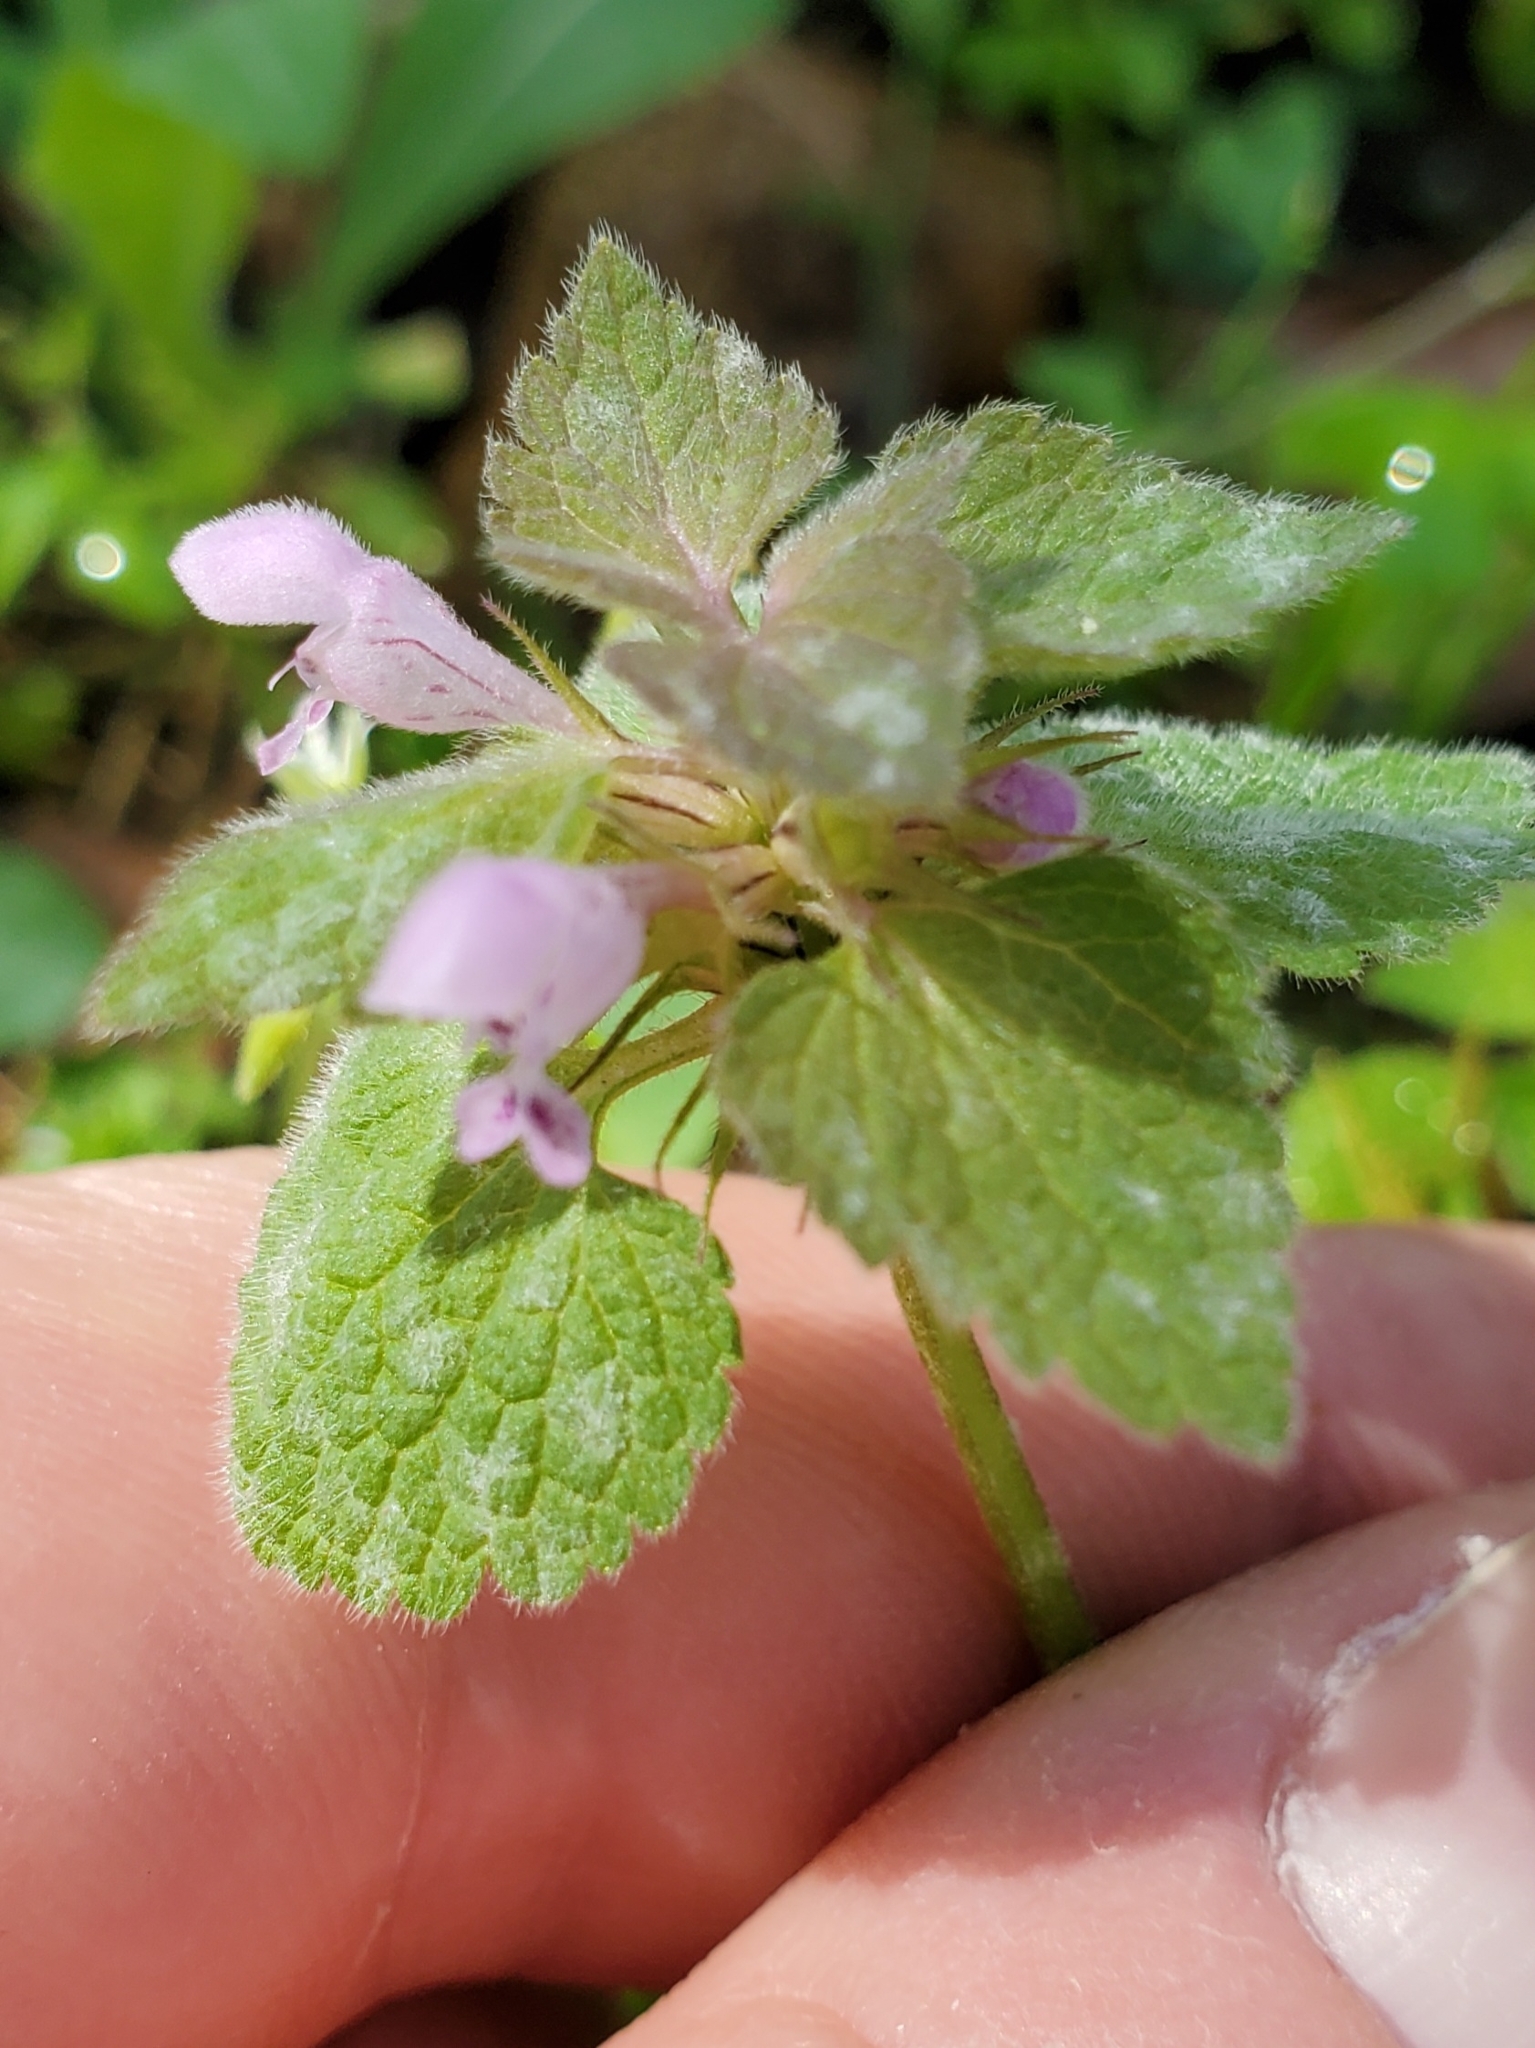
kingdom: Plantae
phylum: Tracheophyta
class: Magnoliopsida
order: Lamiales
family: Lamiaceae
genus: Lamium
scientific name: Lamium purpureum
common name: Red dead-nettle
